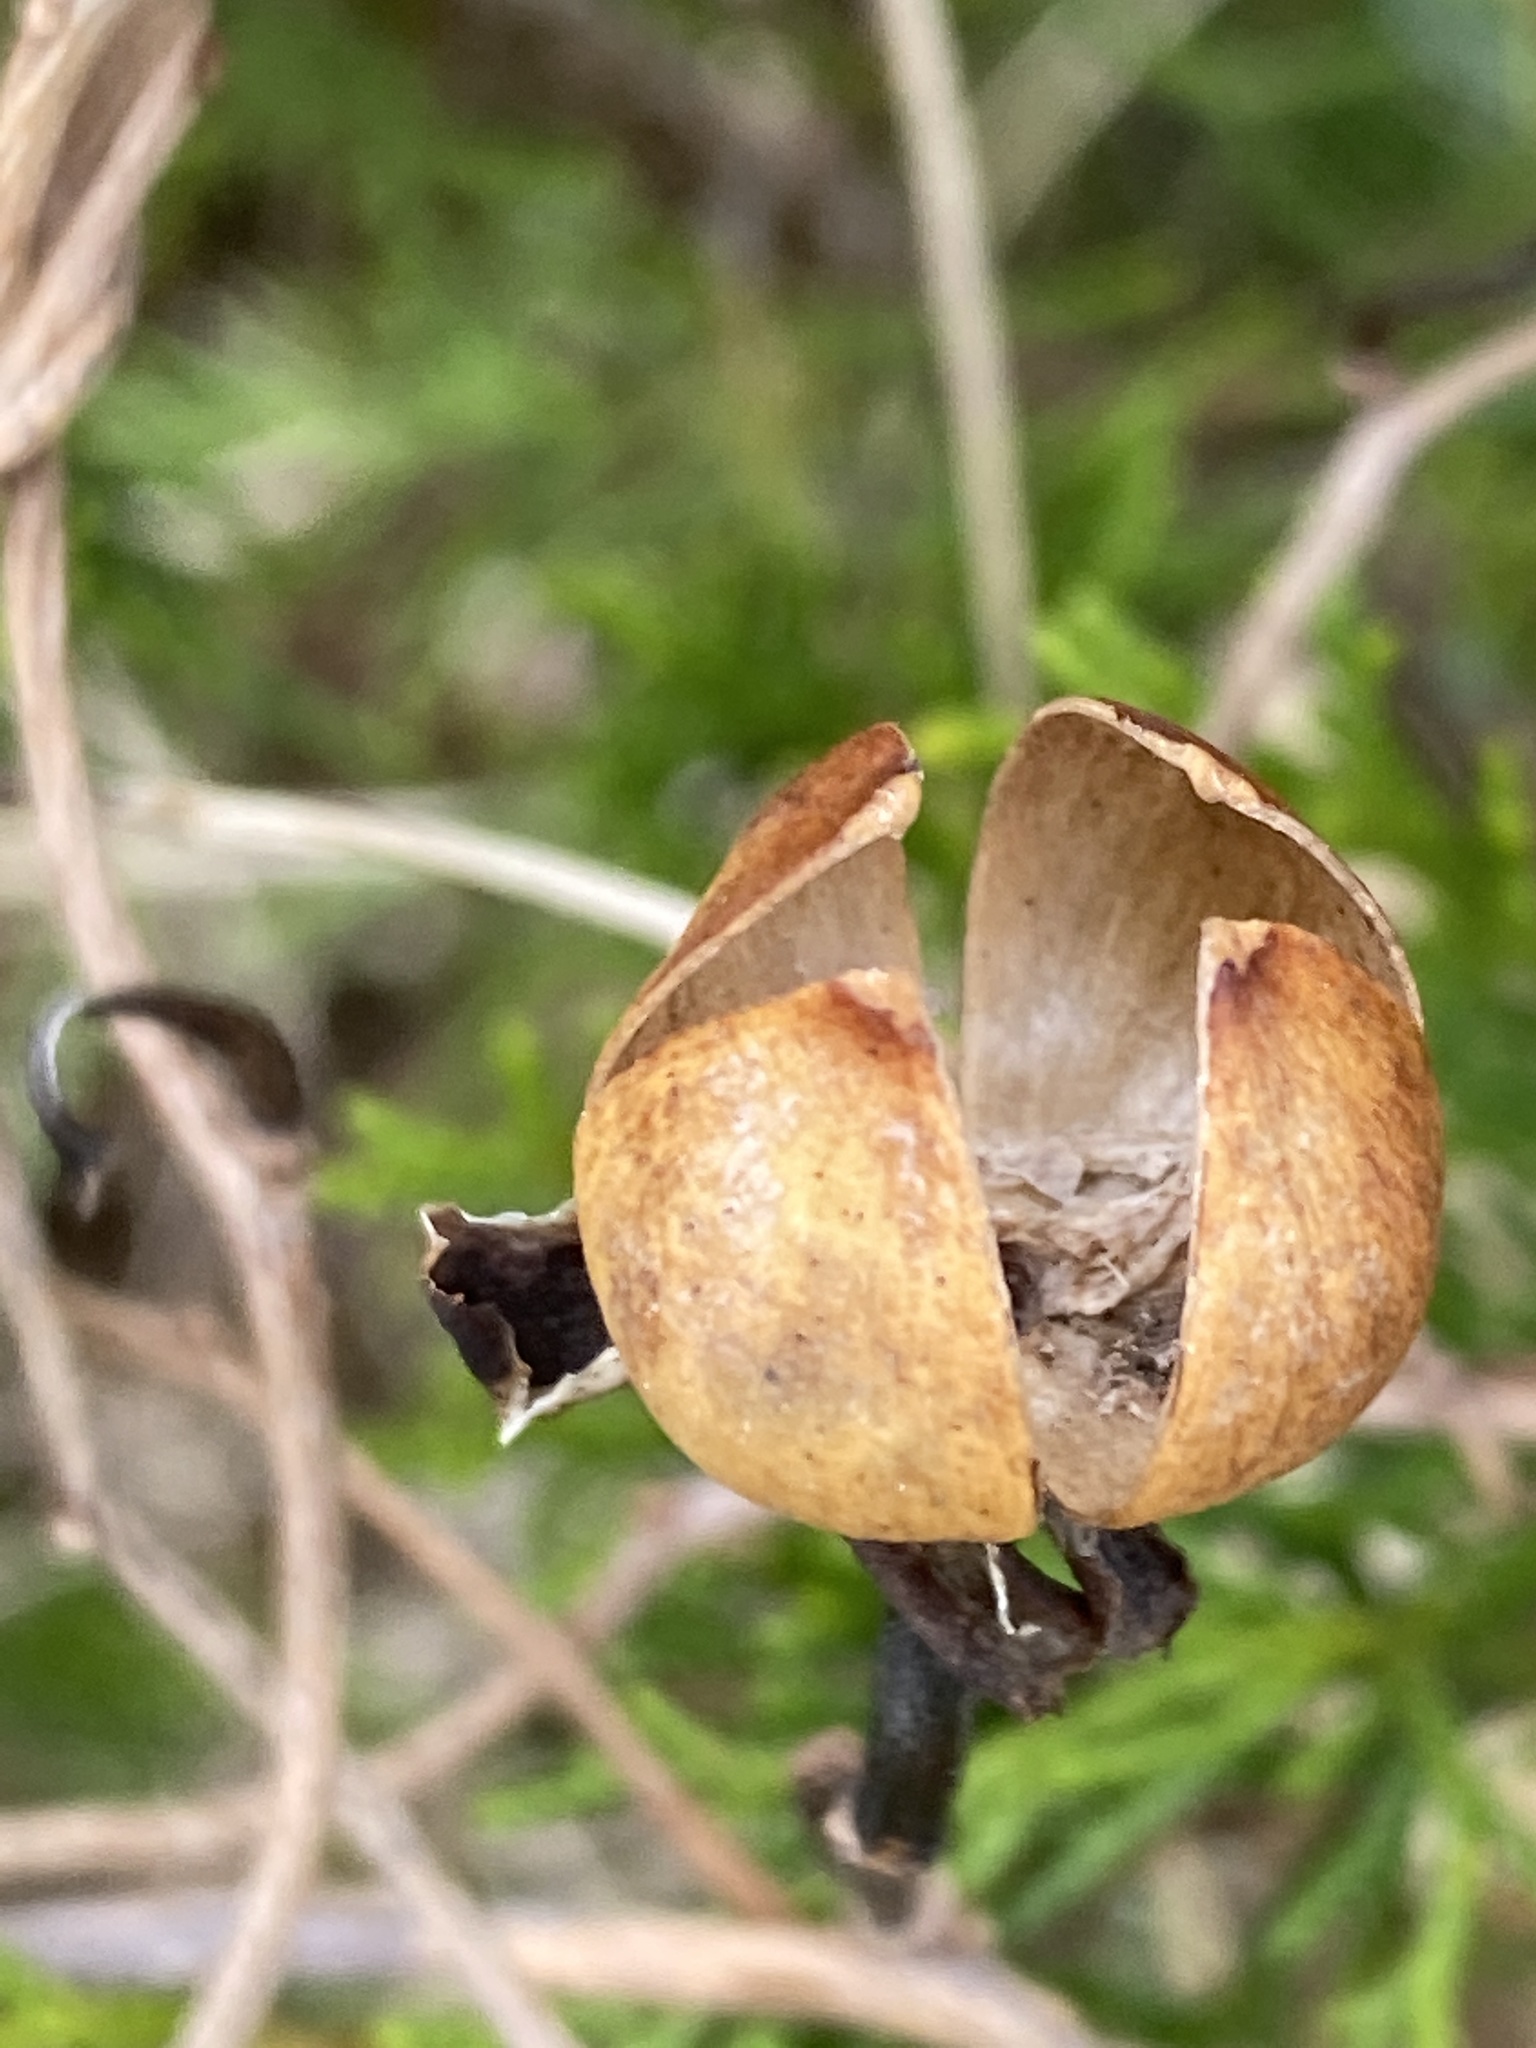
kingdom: Plantae
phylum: Tracheophyta
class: Magnoliopsida
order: Solanales
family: Convolvulaceae
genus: Ipomoea
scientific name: Ipomoea sagittata
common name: Saltmarsh morning glory
